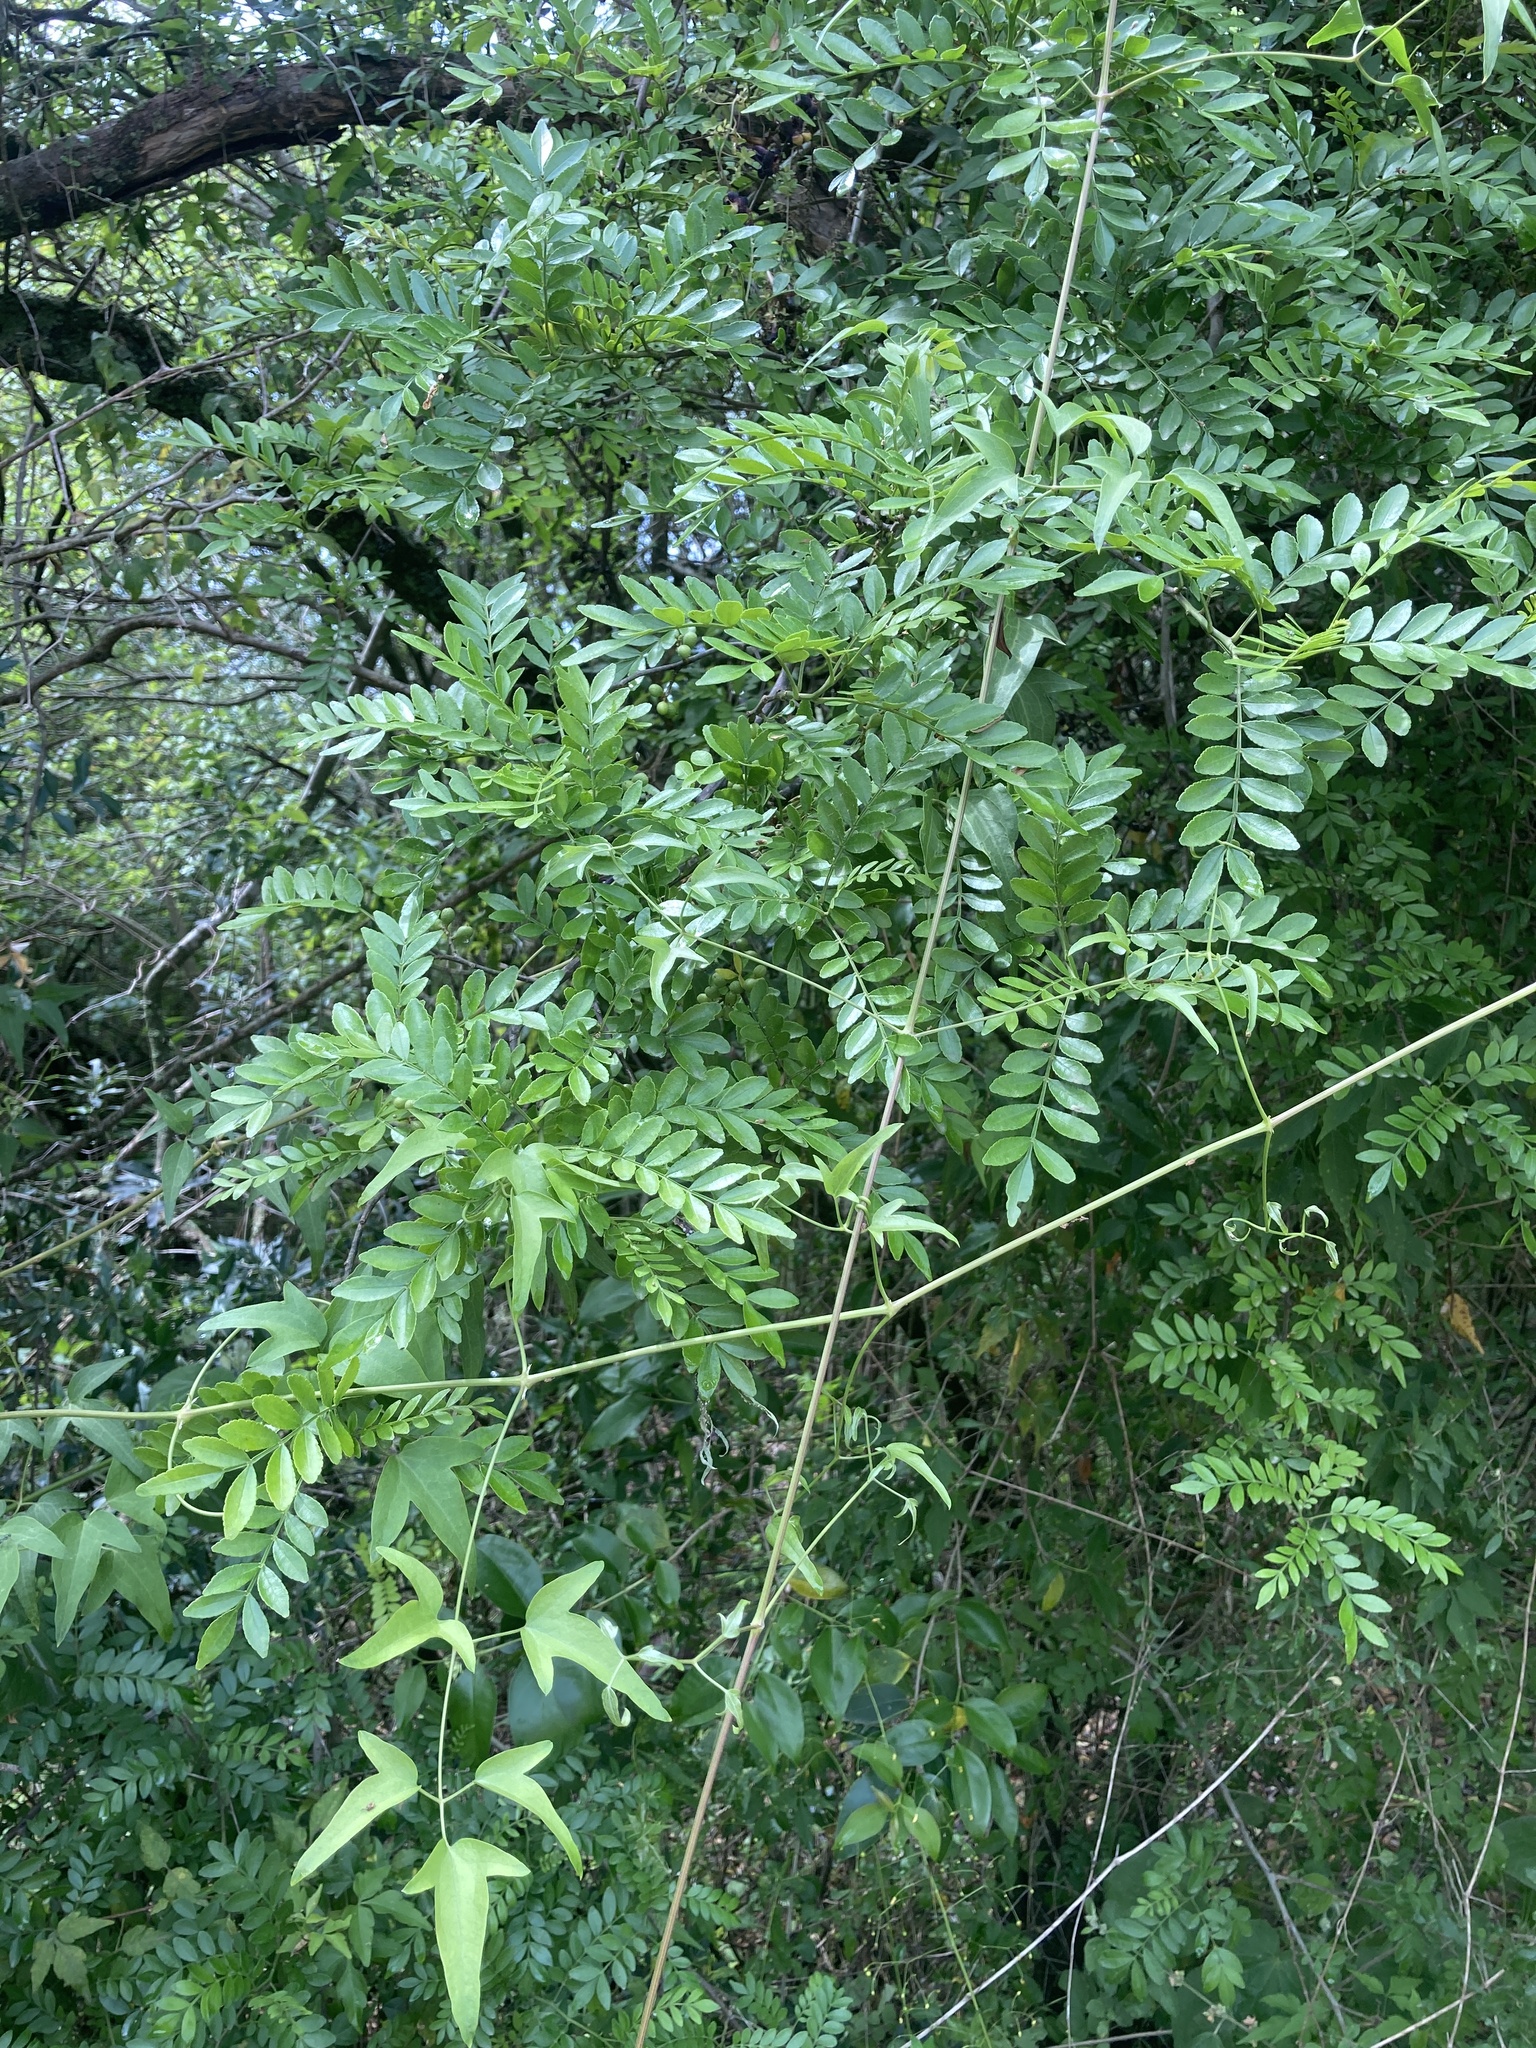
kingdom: Plantae
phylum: Tracheophyta
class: Magnoliopsida
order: Sapindales
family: Rutaceae
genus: Zanthoxylum
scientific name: Zanthoxylum fagara
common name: Lime prickly-ash
